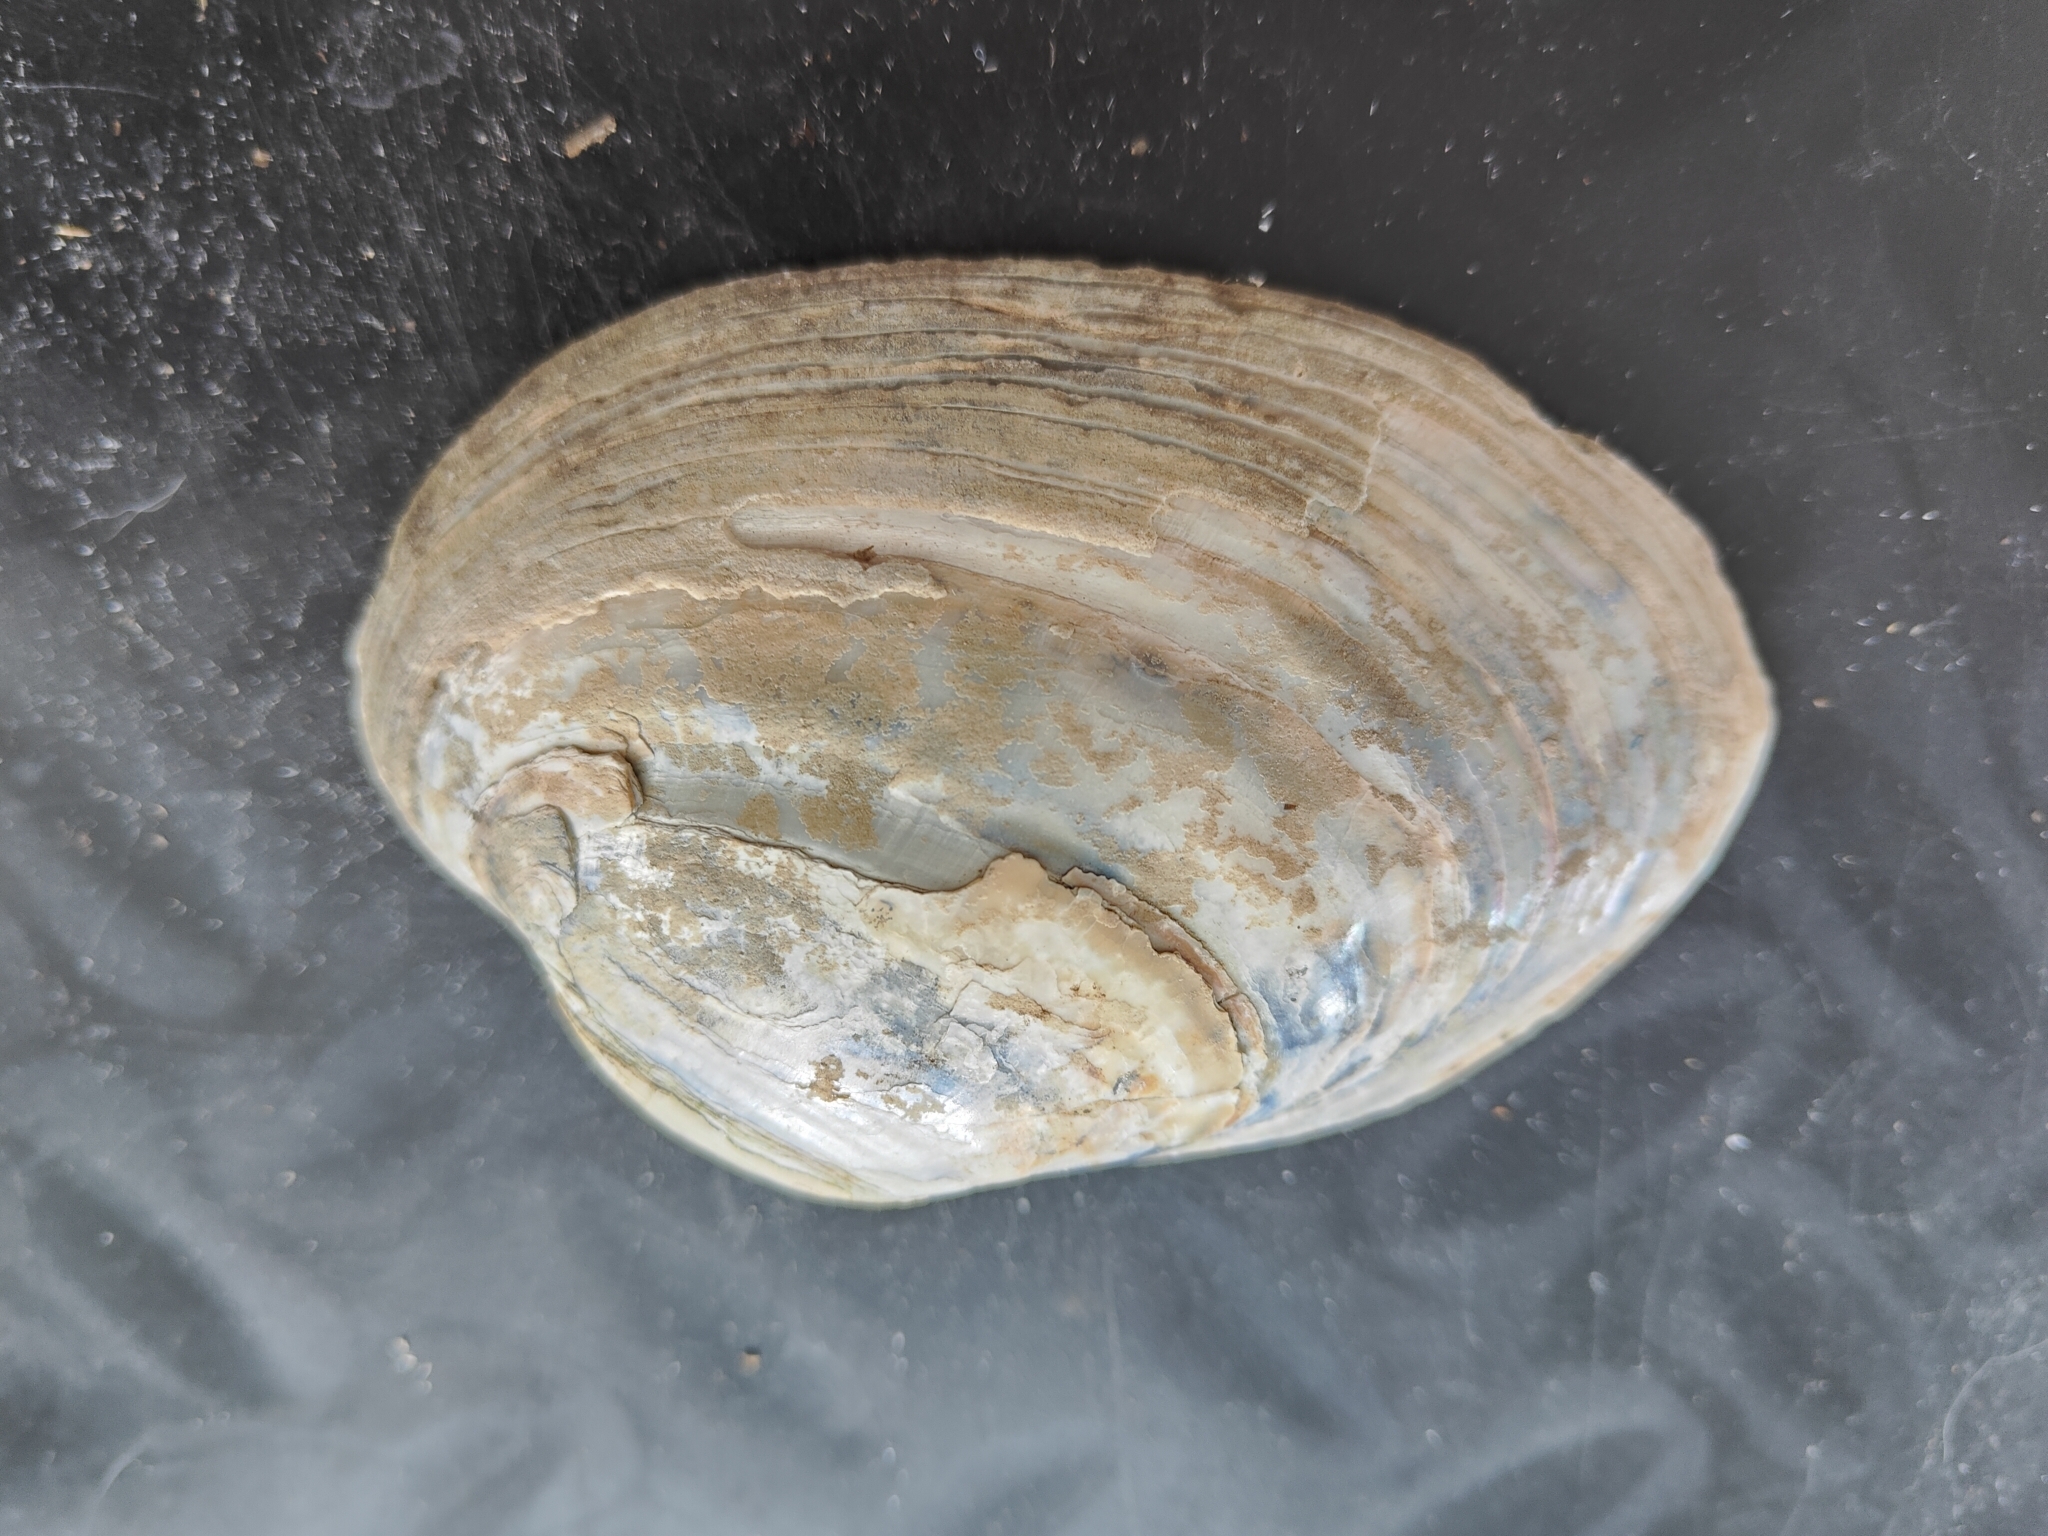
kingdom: Animalia
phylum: Mollusca
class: Bivalvia
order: Unionida
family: Unionidae
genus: Lampsilis
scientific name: Lampsilis cardium
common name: Plain pocketbook
